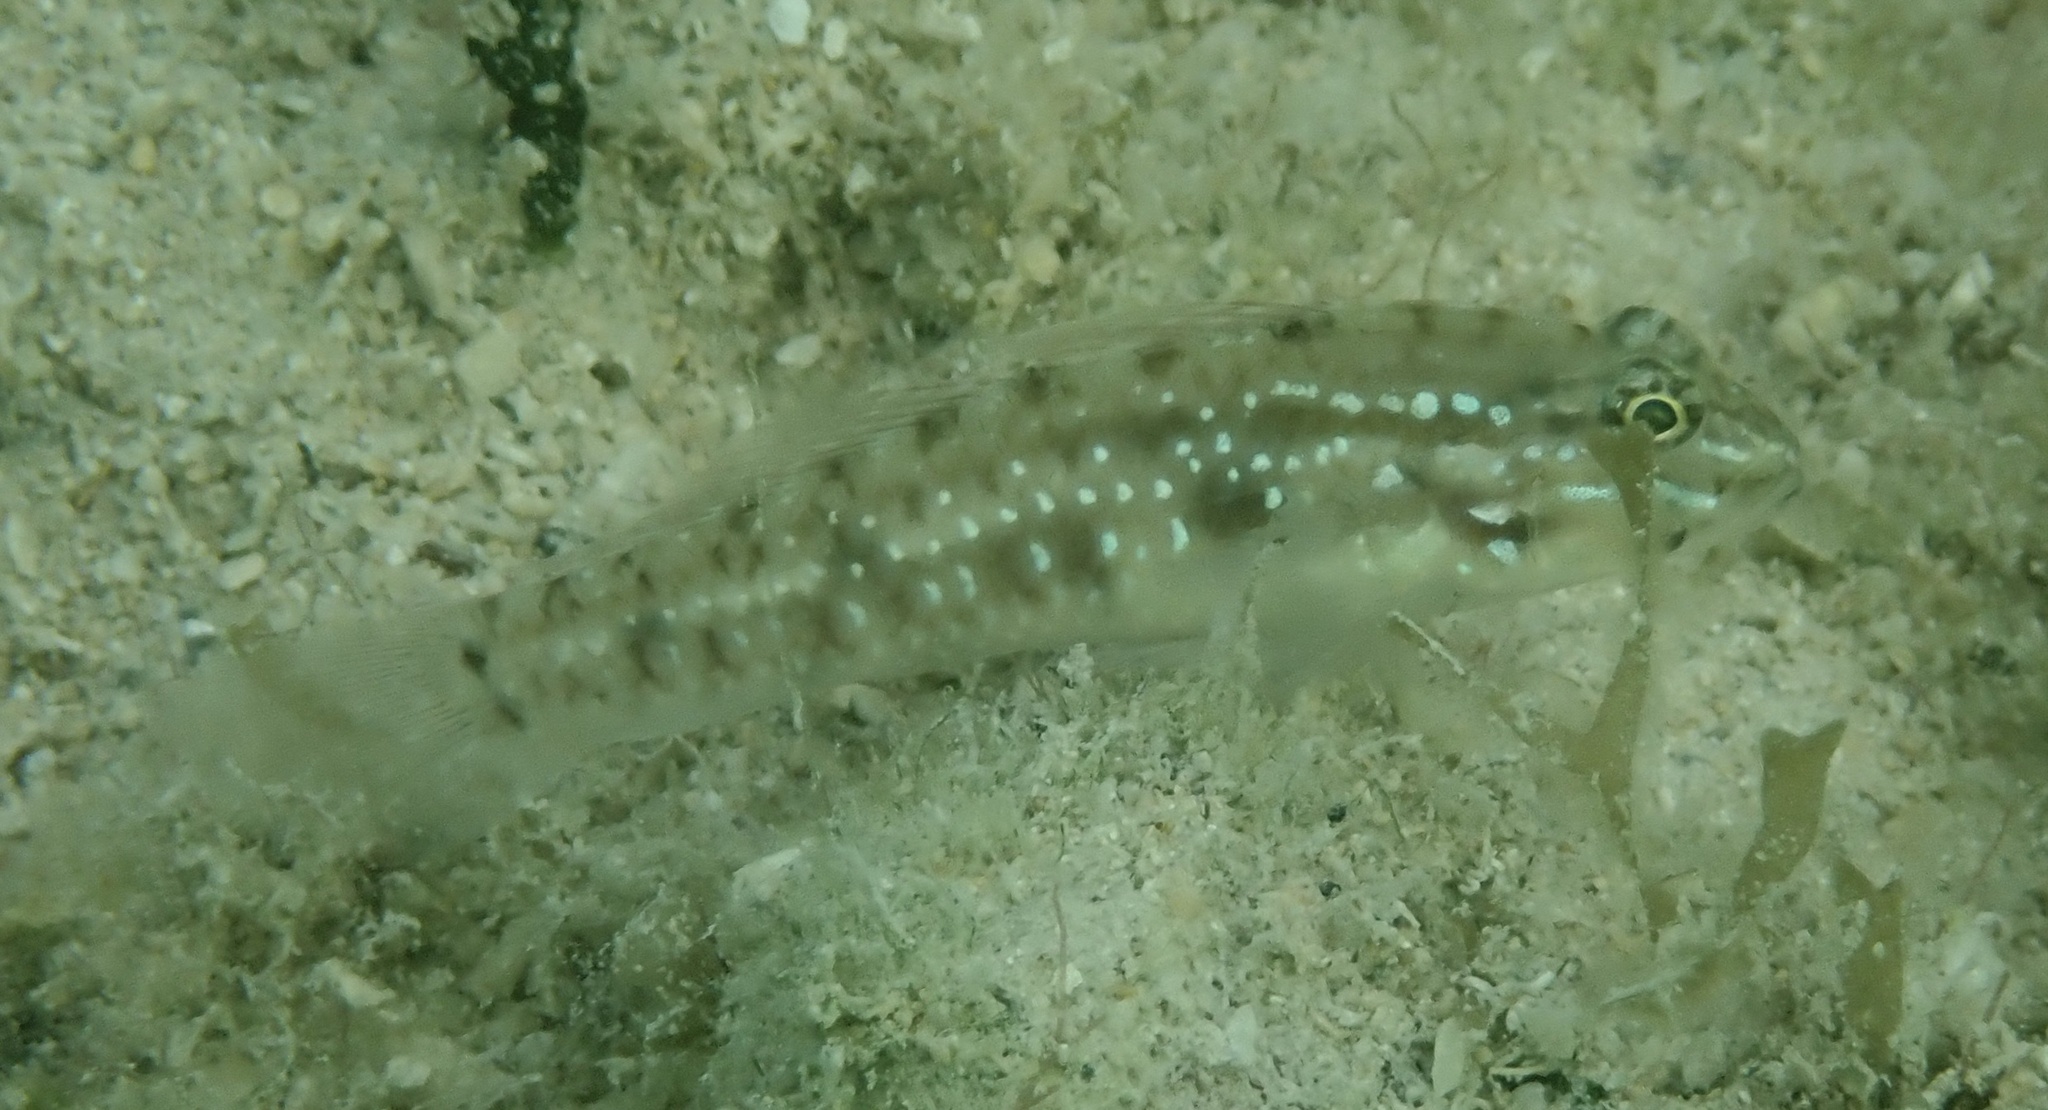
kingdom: Animalia
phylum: Chordata
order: Perciformes
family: Gobiidae
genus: Coryphopterus
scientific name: Coryphopterus glaucofraenum
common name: Bridled goby
